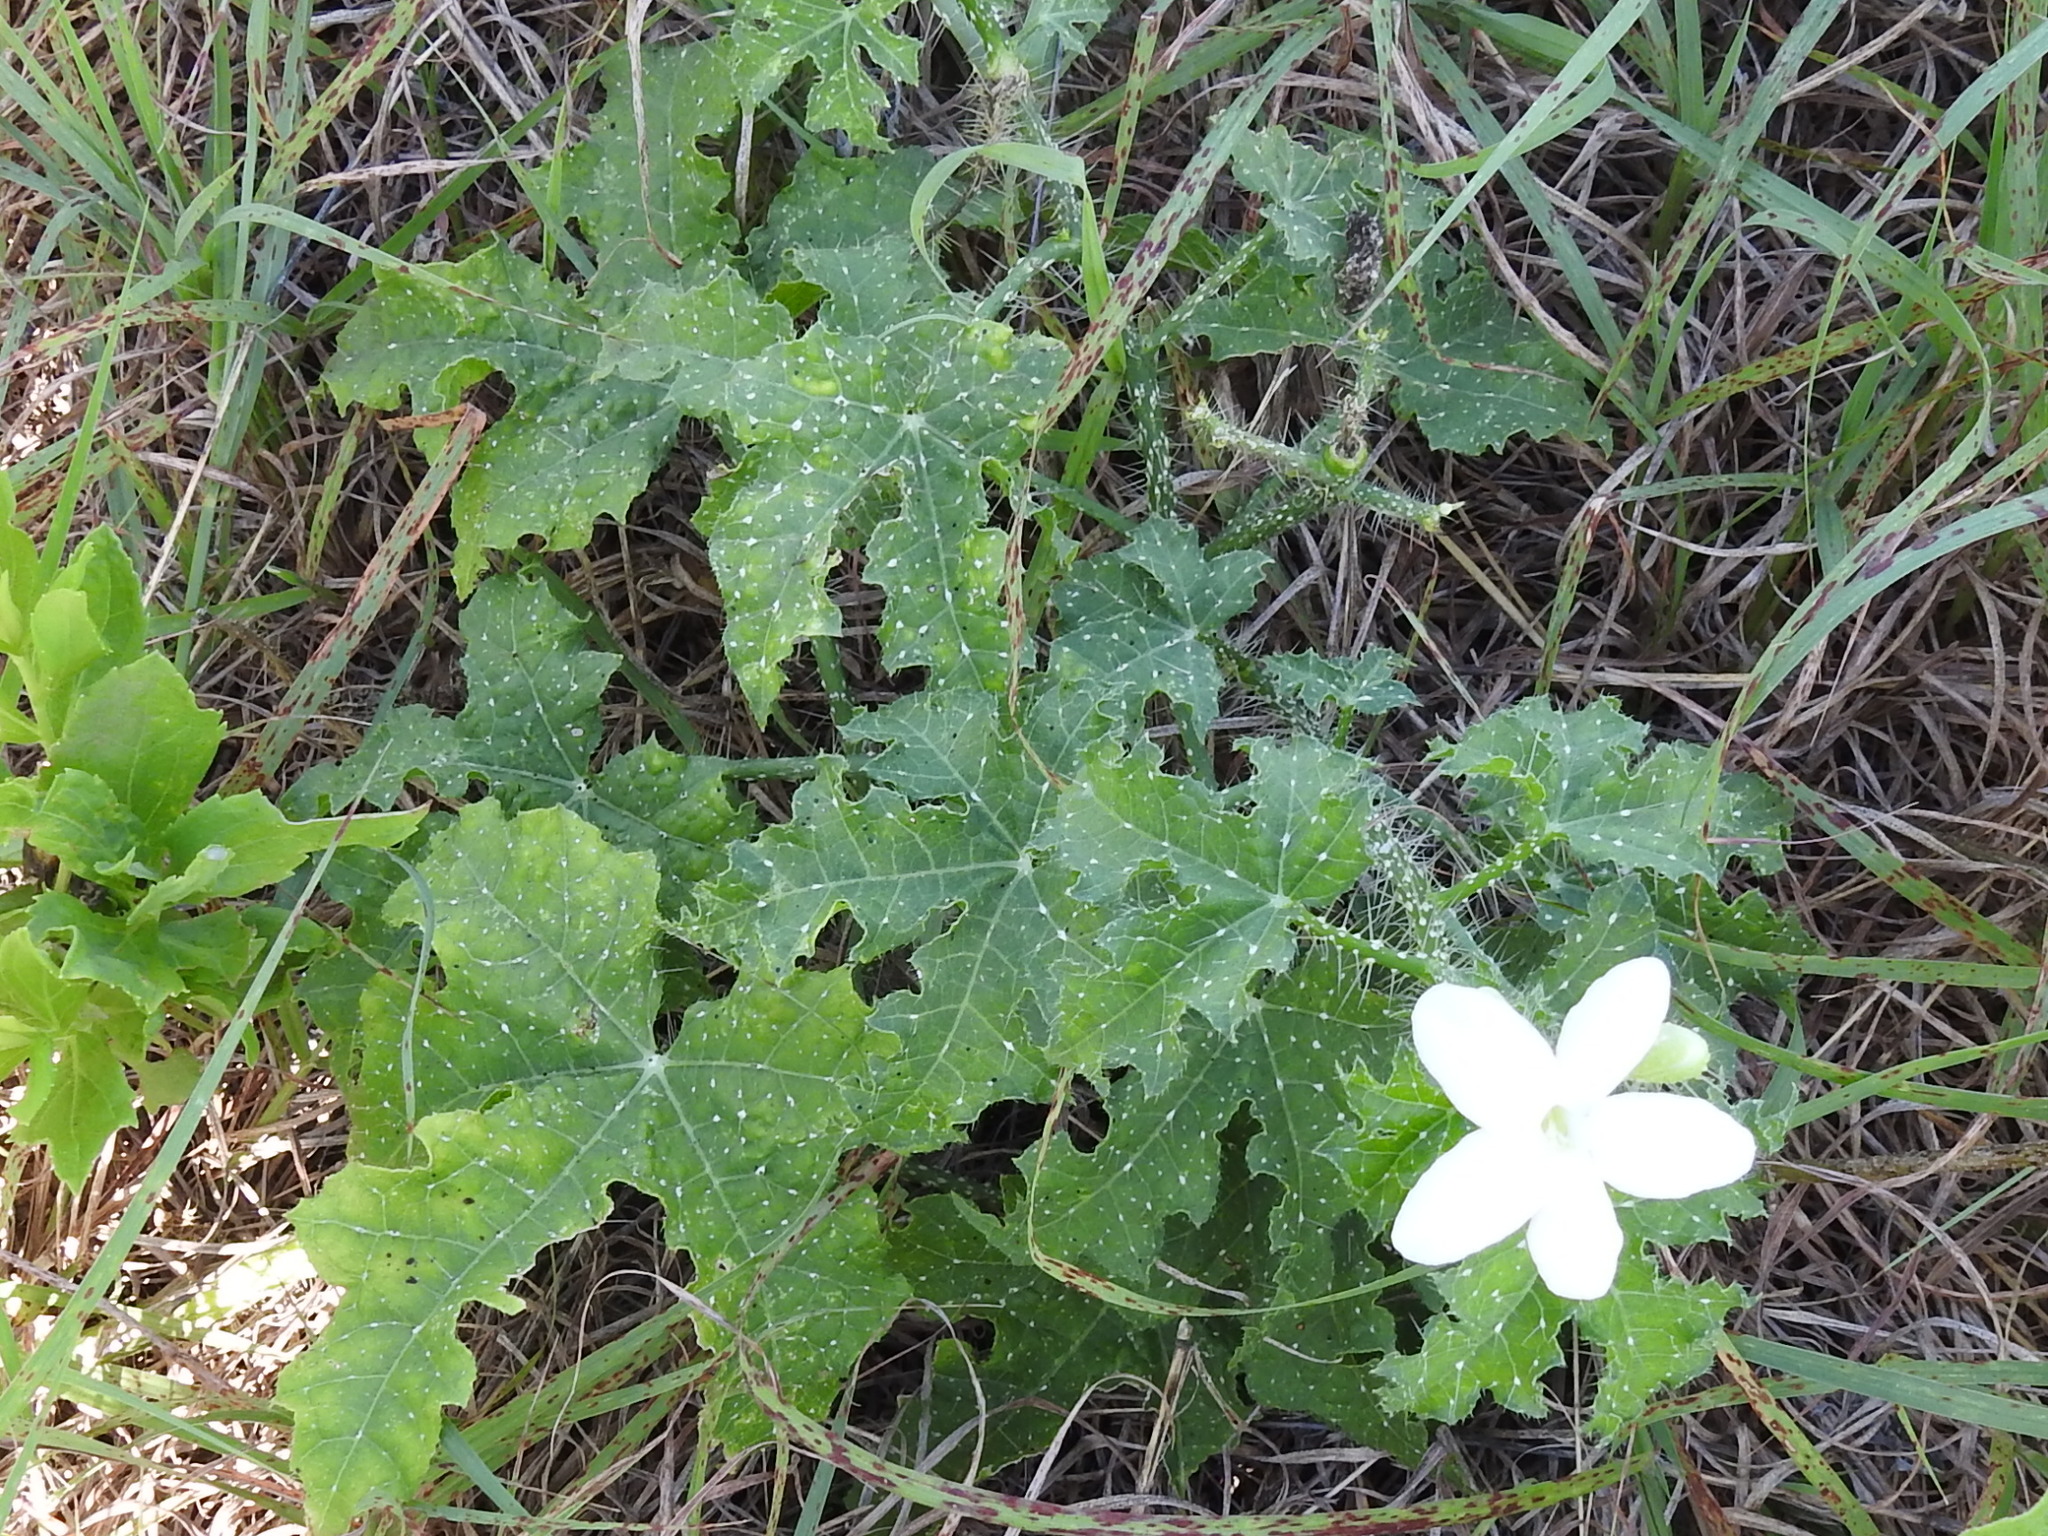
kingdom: Plantae
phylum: Tracheophyta
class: Magnoliopsida
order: Malpighiales
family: Euphorbiaceae
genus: Cnidoscolus
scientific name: Cnidoscolus texanus
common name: Texas bull-nettle
